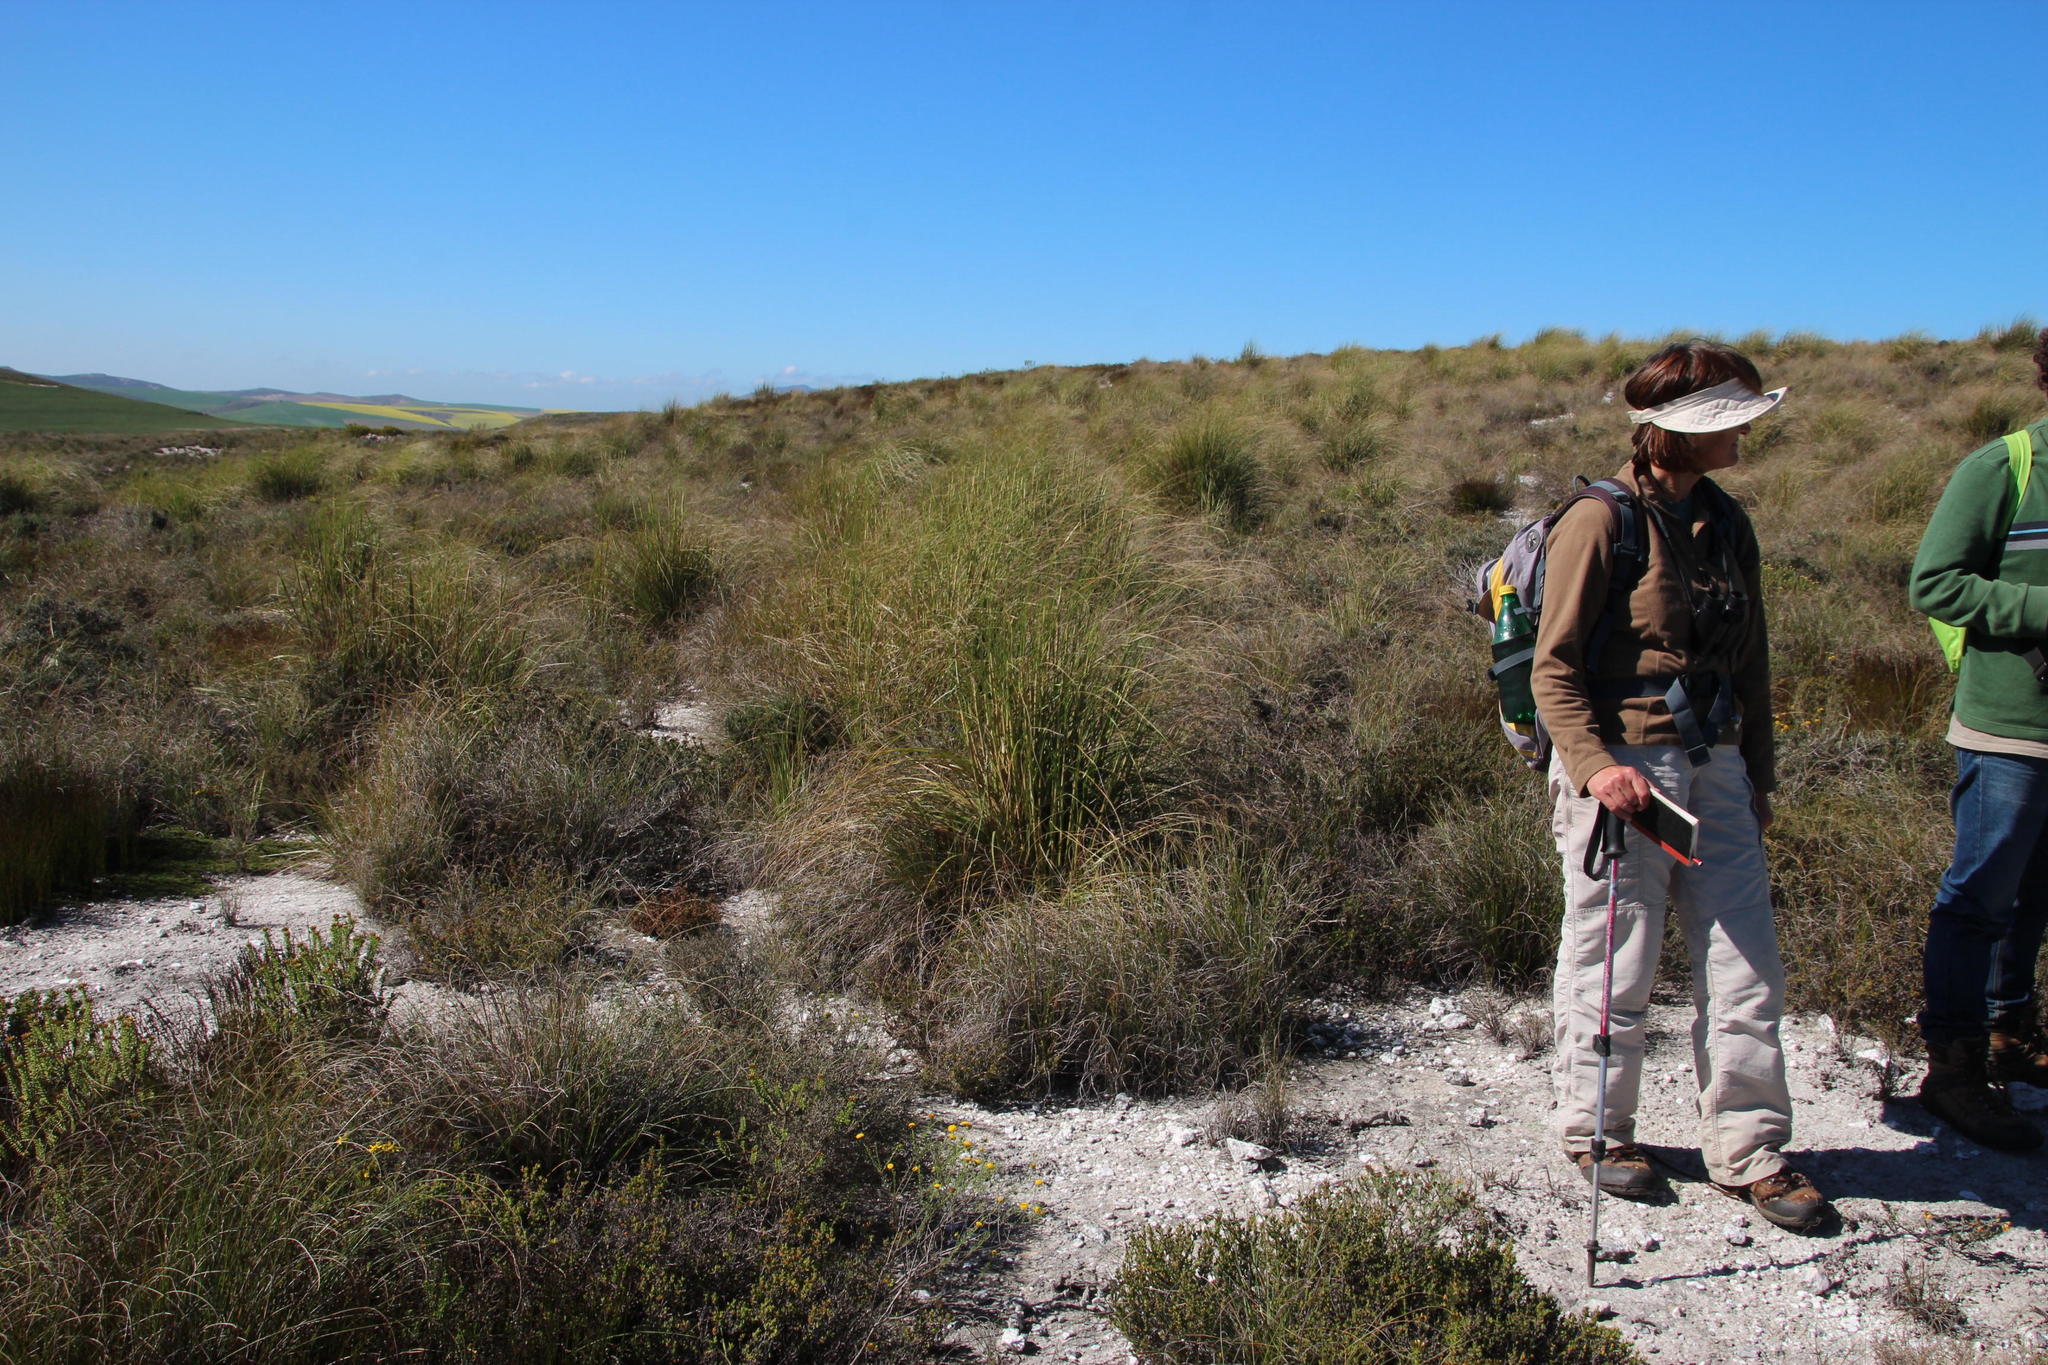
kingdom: Plantae
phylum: Tracheophyta
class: Liliopsida
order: Poales
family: Poaceae
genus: Capeochloa
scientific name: Capeochloa arundinacea
